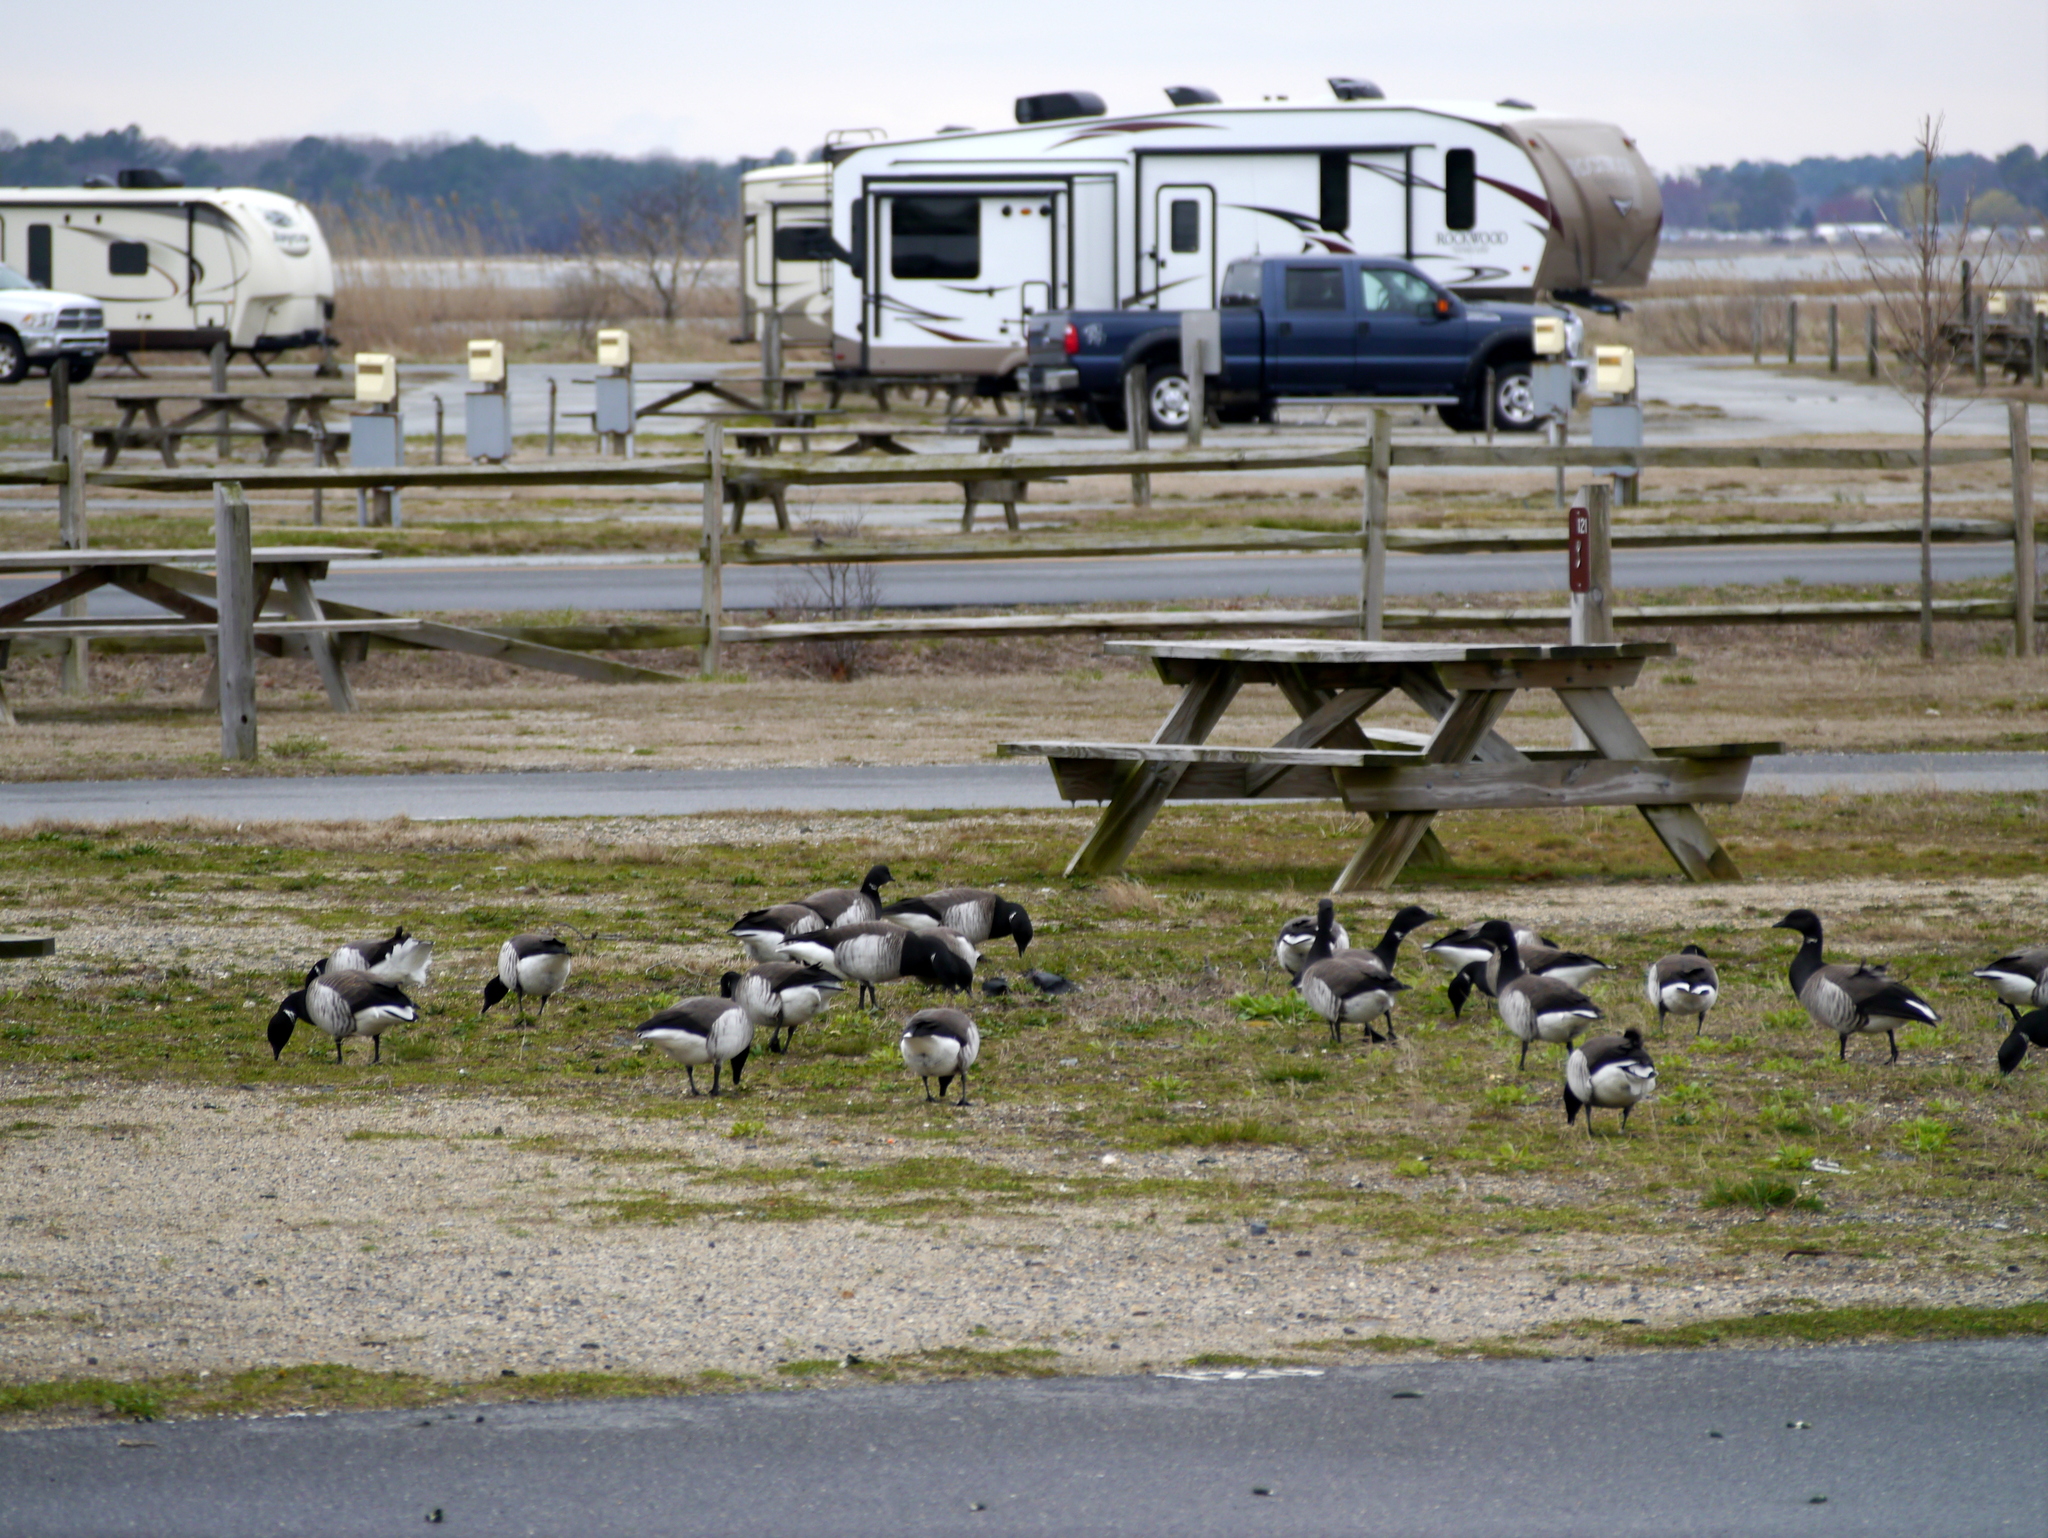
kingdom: Animalia
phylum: Chordata
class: Aves
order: Anseriformes
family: Anatidae
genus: Branta
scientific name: Branta bernicla
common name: Brant goose
